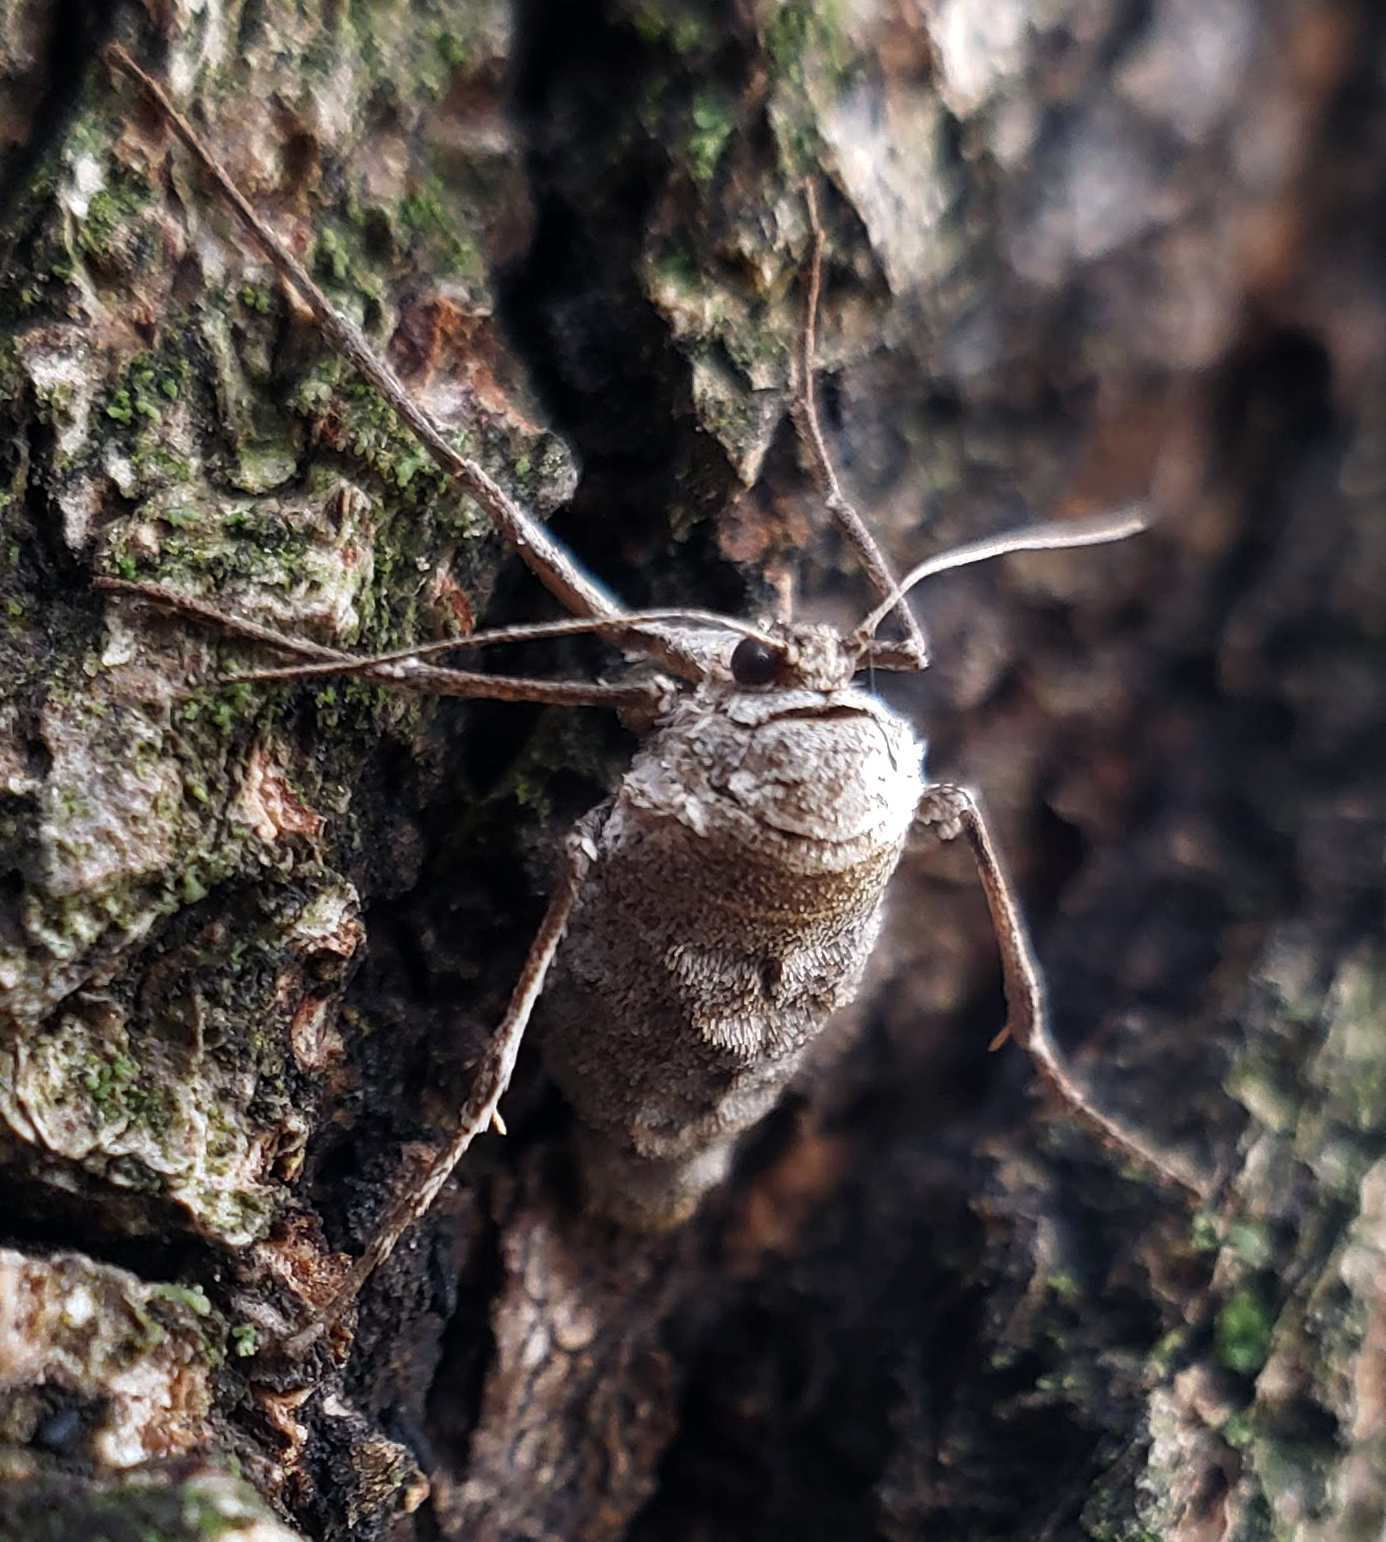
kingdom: Animalia
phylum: Arthropoda
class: Insecta
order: Lepidoptera
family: Geometridae
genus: Alsophila
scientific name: Alsophila pometaria
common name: Fall cankerworm
